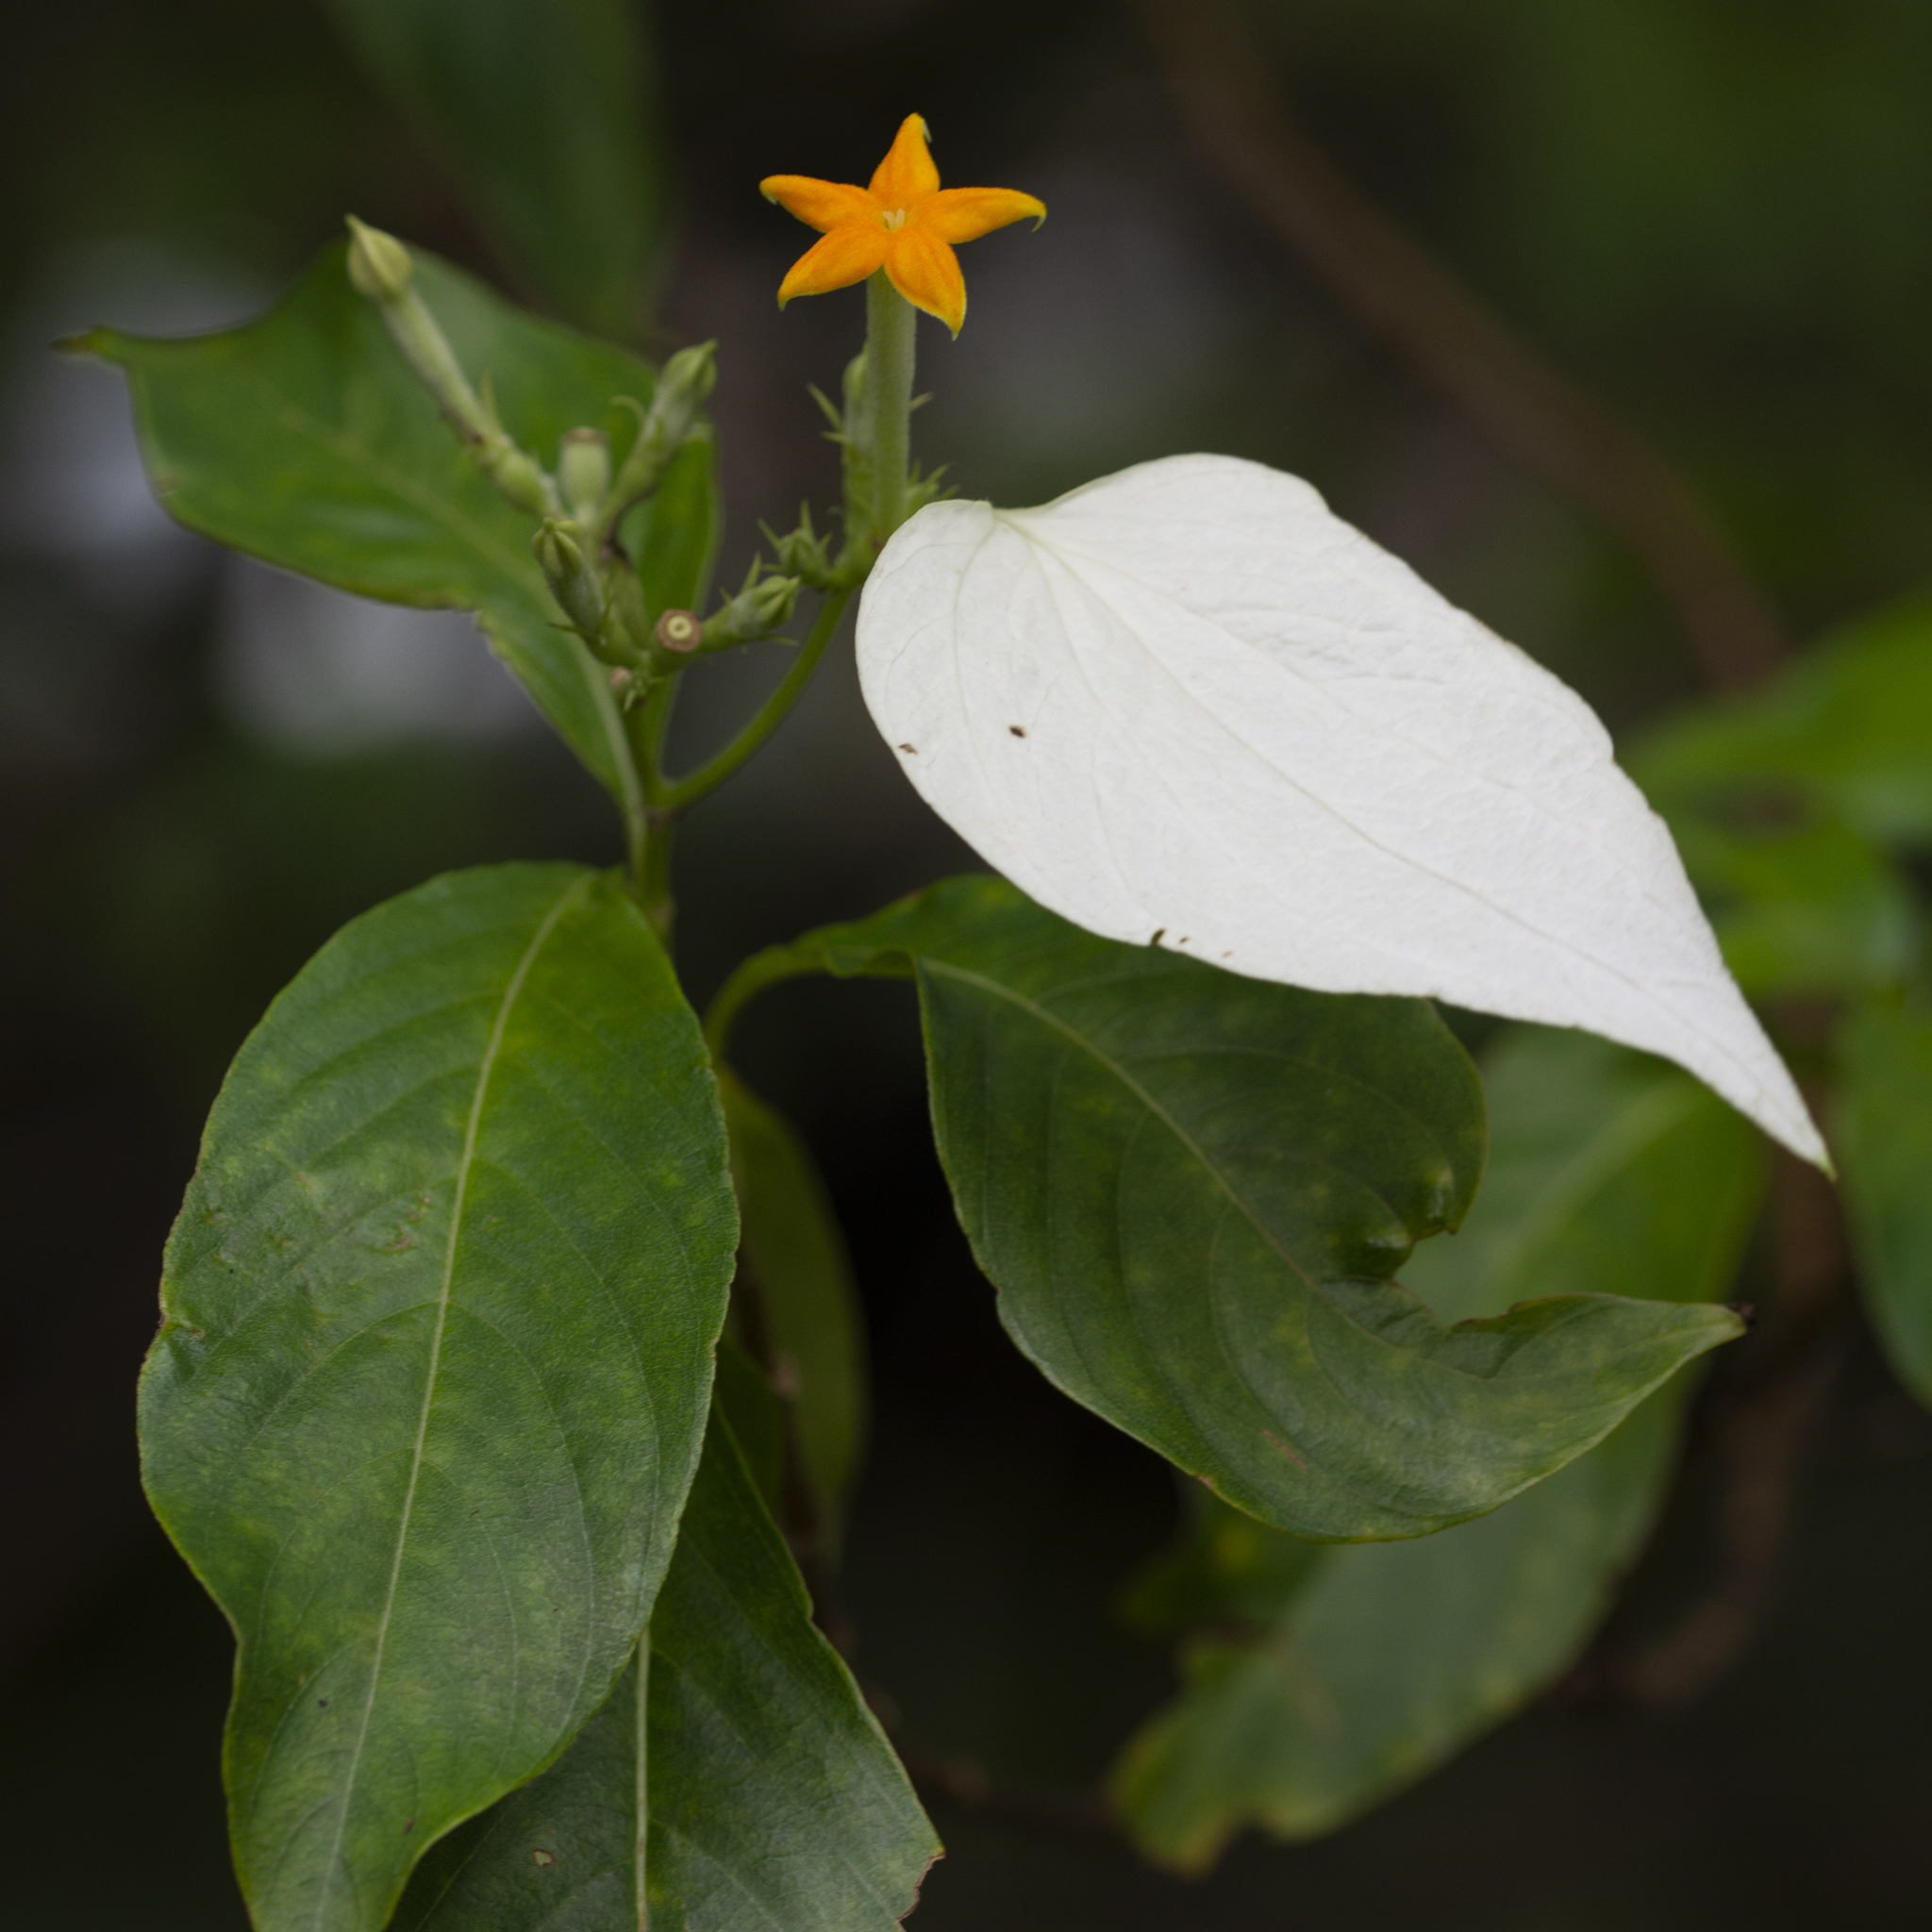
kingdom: Plantae
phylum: Tracheophyta
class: Magnoliopsida
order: Gentianales
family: Rubiaceae
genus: Mussaenda
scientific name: Mussaenda philippica
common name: Philippine mussaenda
